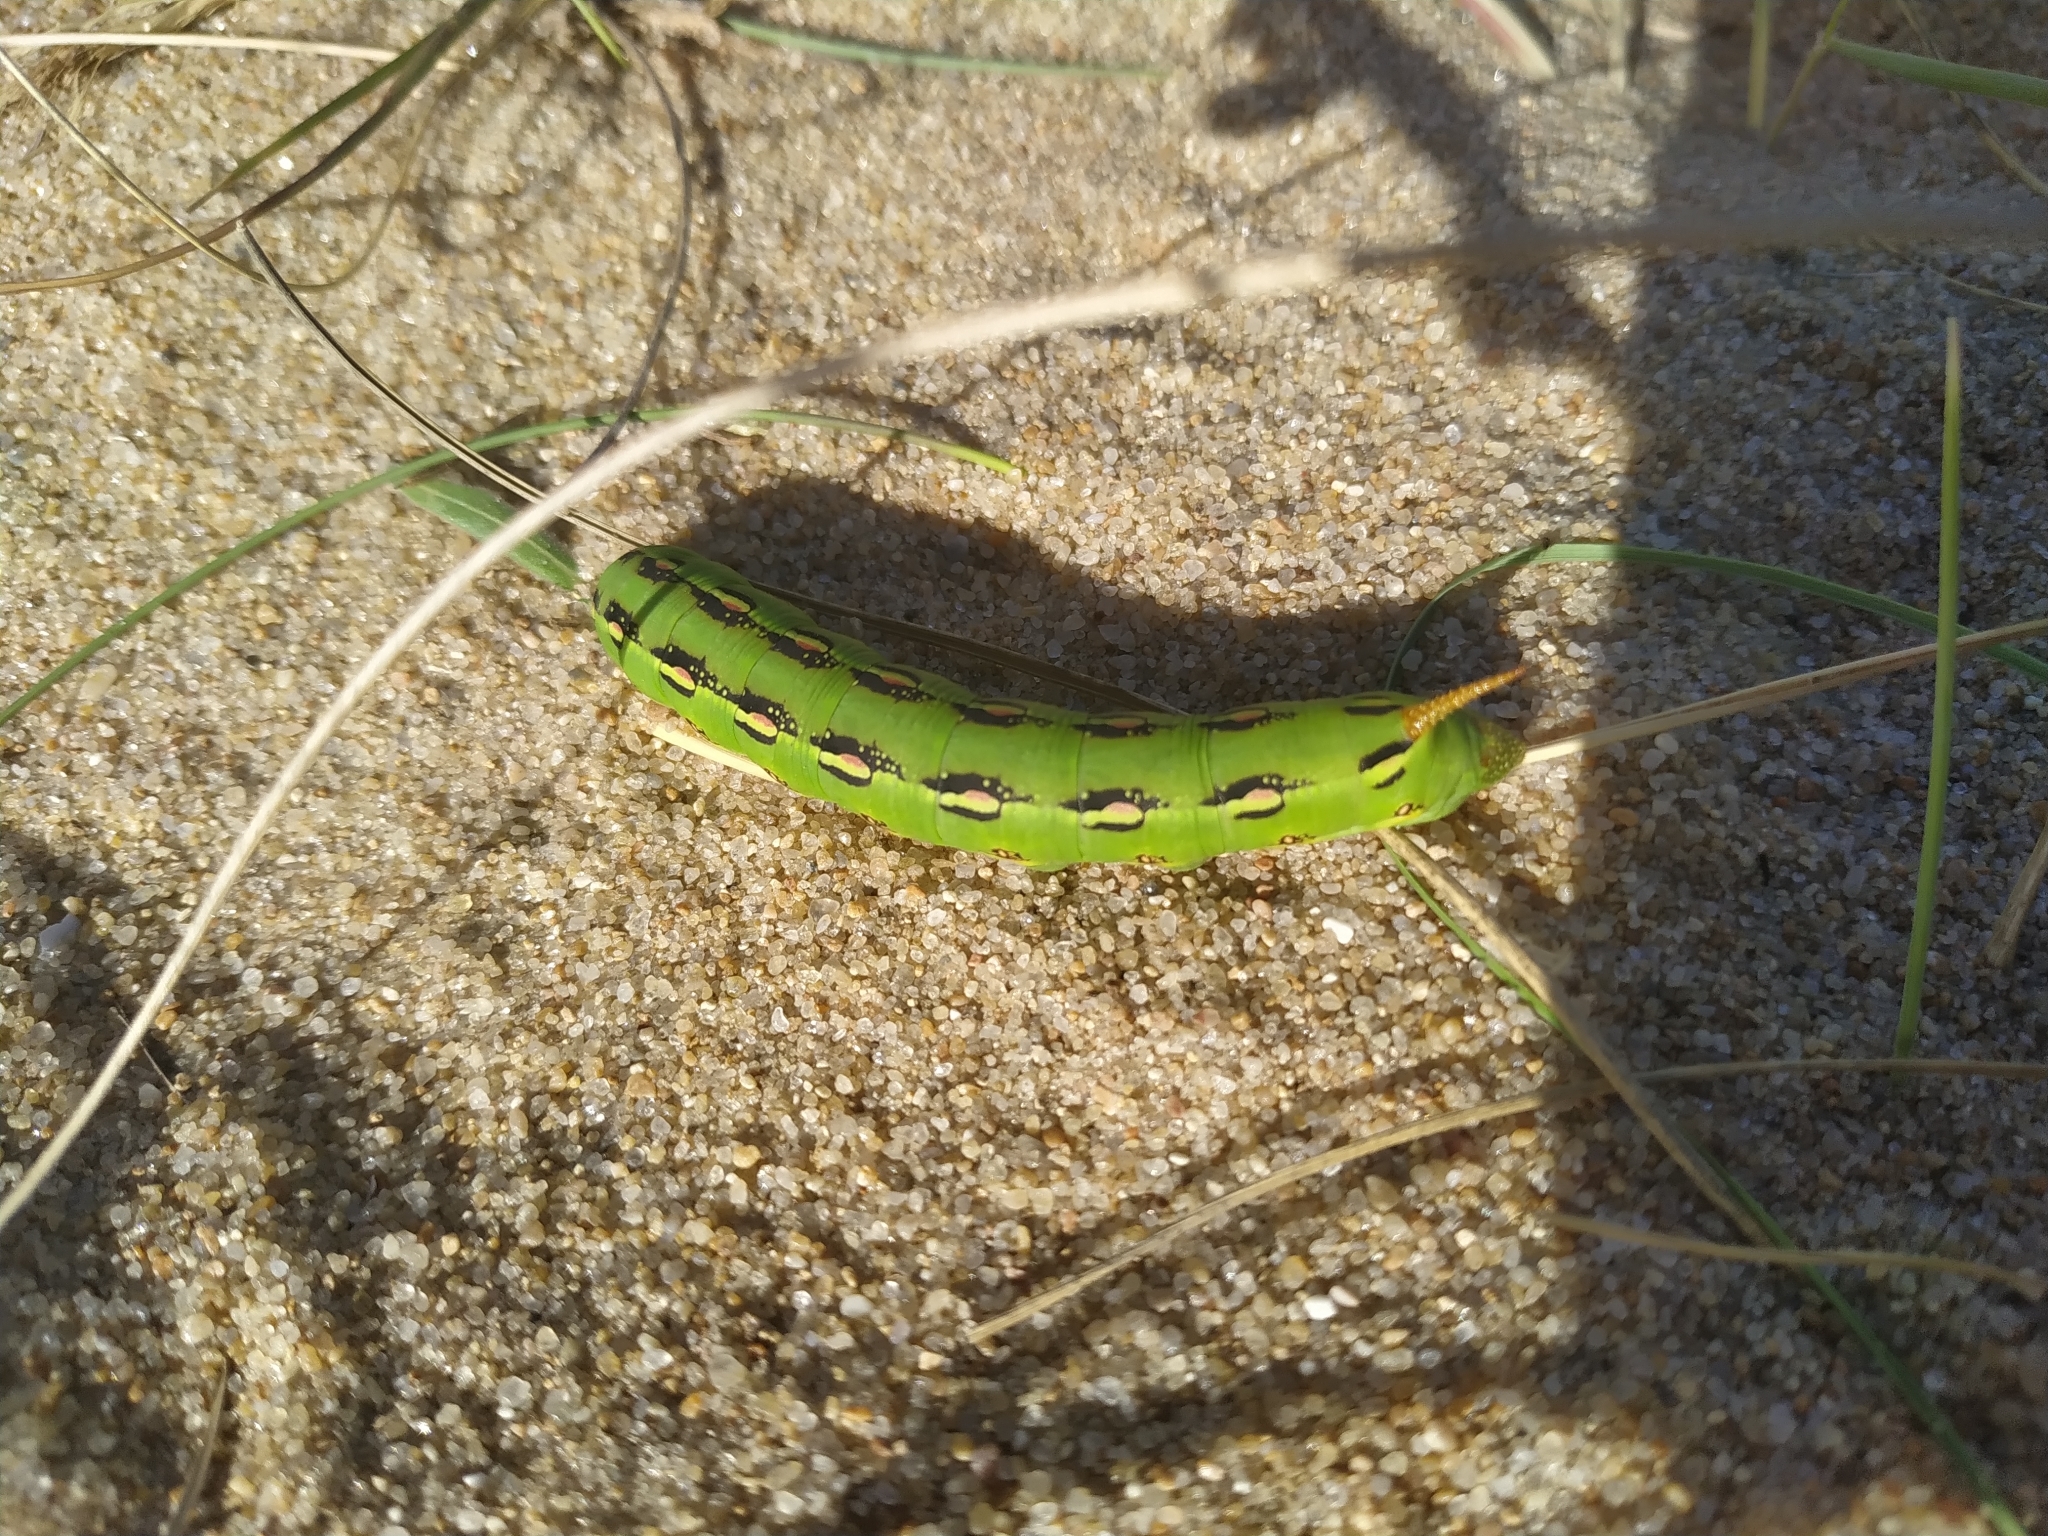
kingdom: Animalia
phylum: Arthropoda
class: Insecta
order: Lepidoptera
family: Sphingidae
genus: Hyles
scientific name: Hyles lineata
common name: White-lined sphinx
